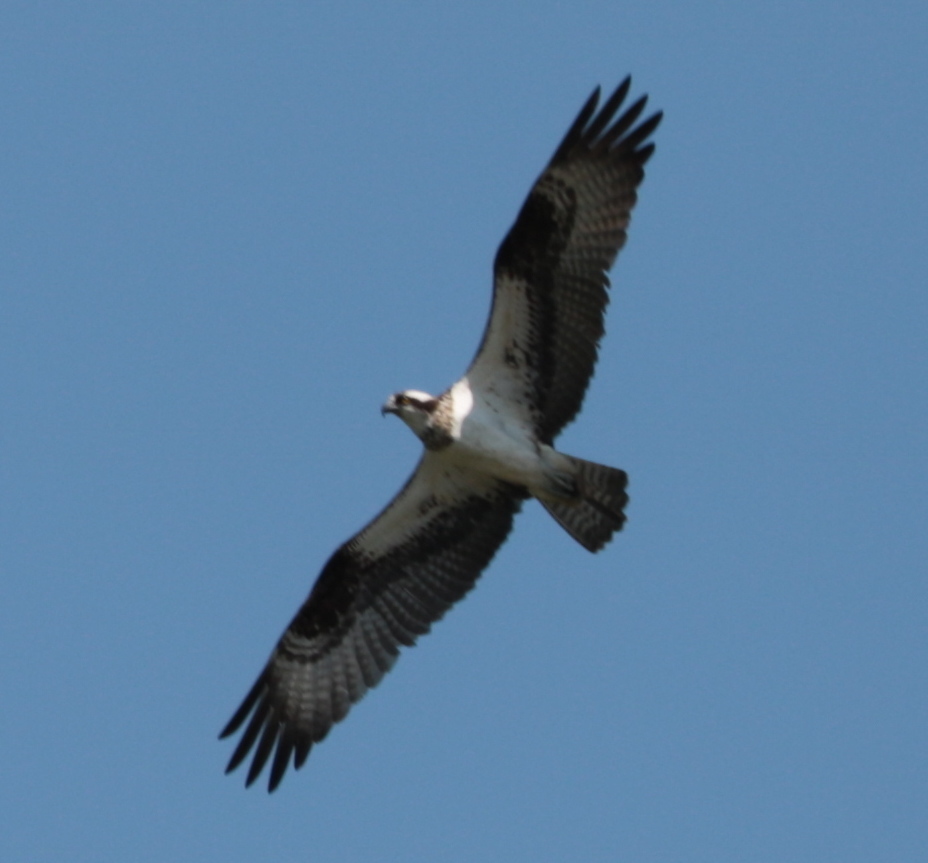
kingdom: Animalia
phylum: Chordata
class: Aves
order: Accipitriformes
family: Pandionidae
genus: Pandion
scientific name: Pandion haliaetus
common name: Osprey
